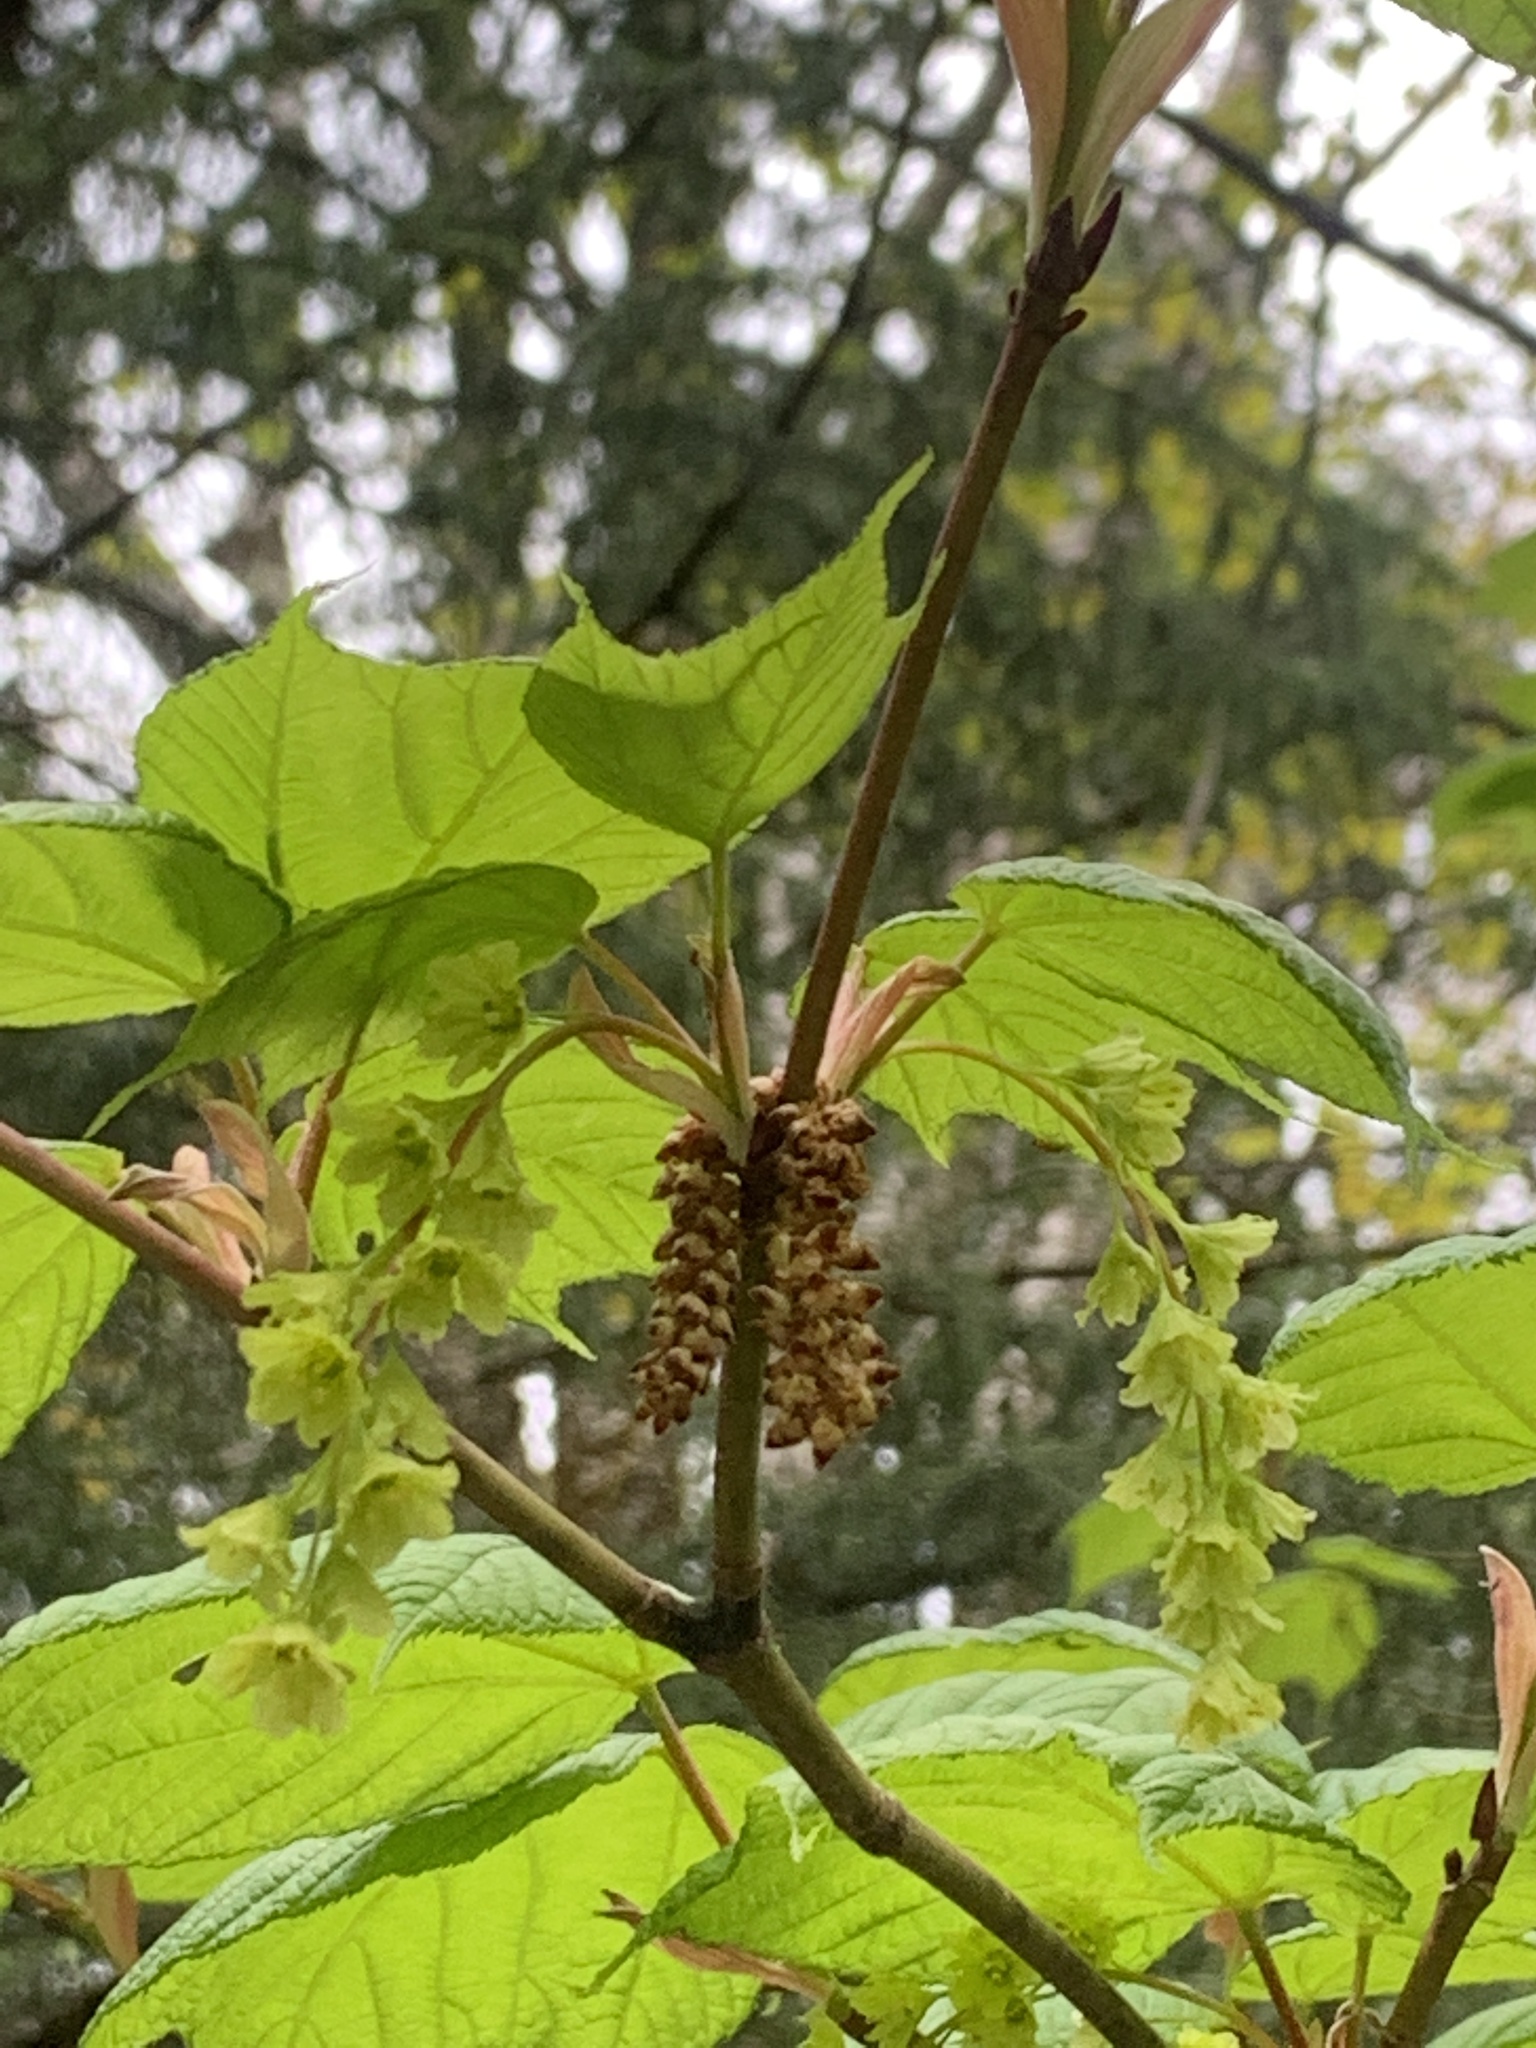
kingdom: Plantae
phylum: Tracheophyta
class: Magnoliopsida
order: Sapindales
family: Sapindaceae
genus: Acer
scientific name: Acer pensylvanicum
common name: Moosewood
